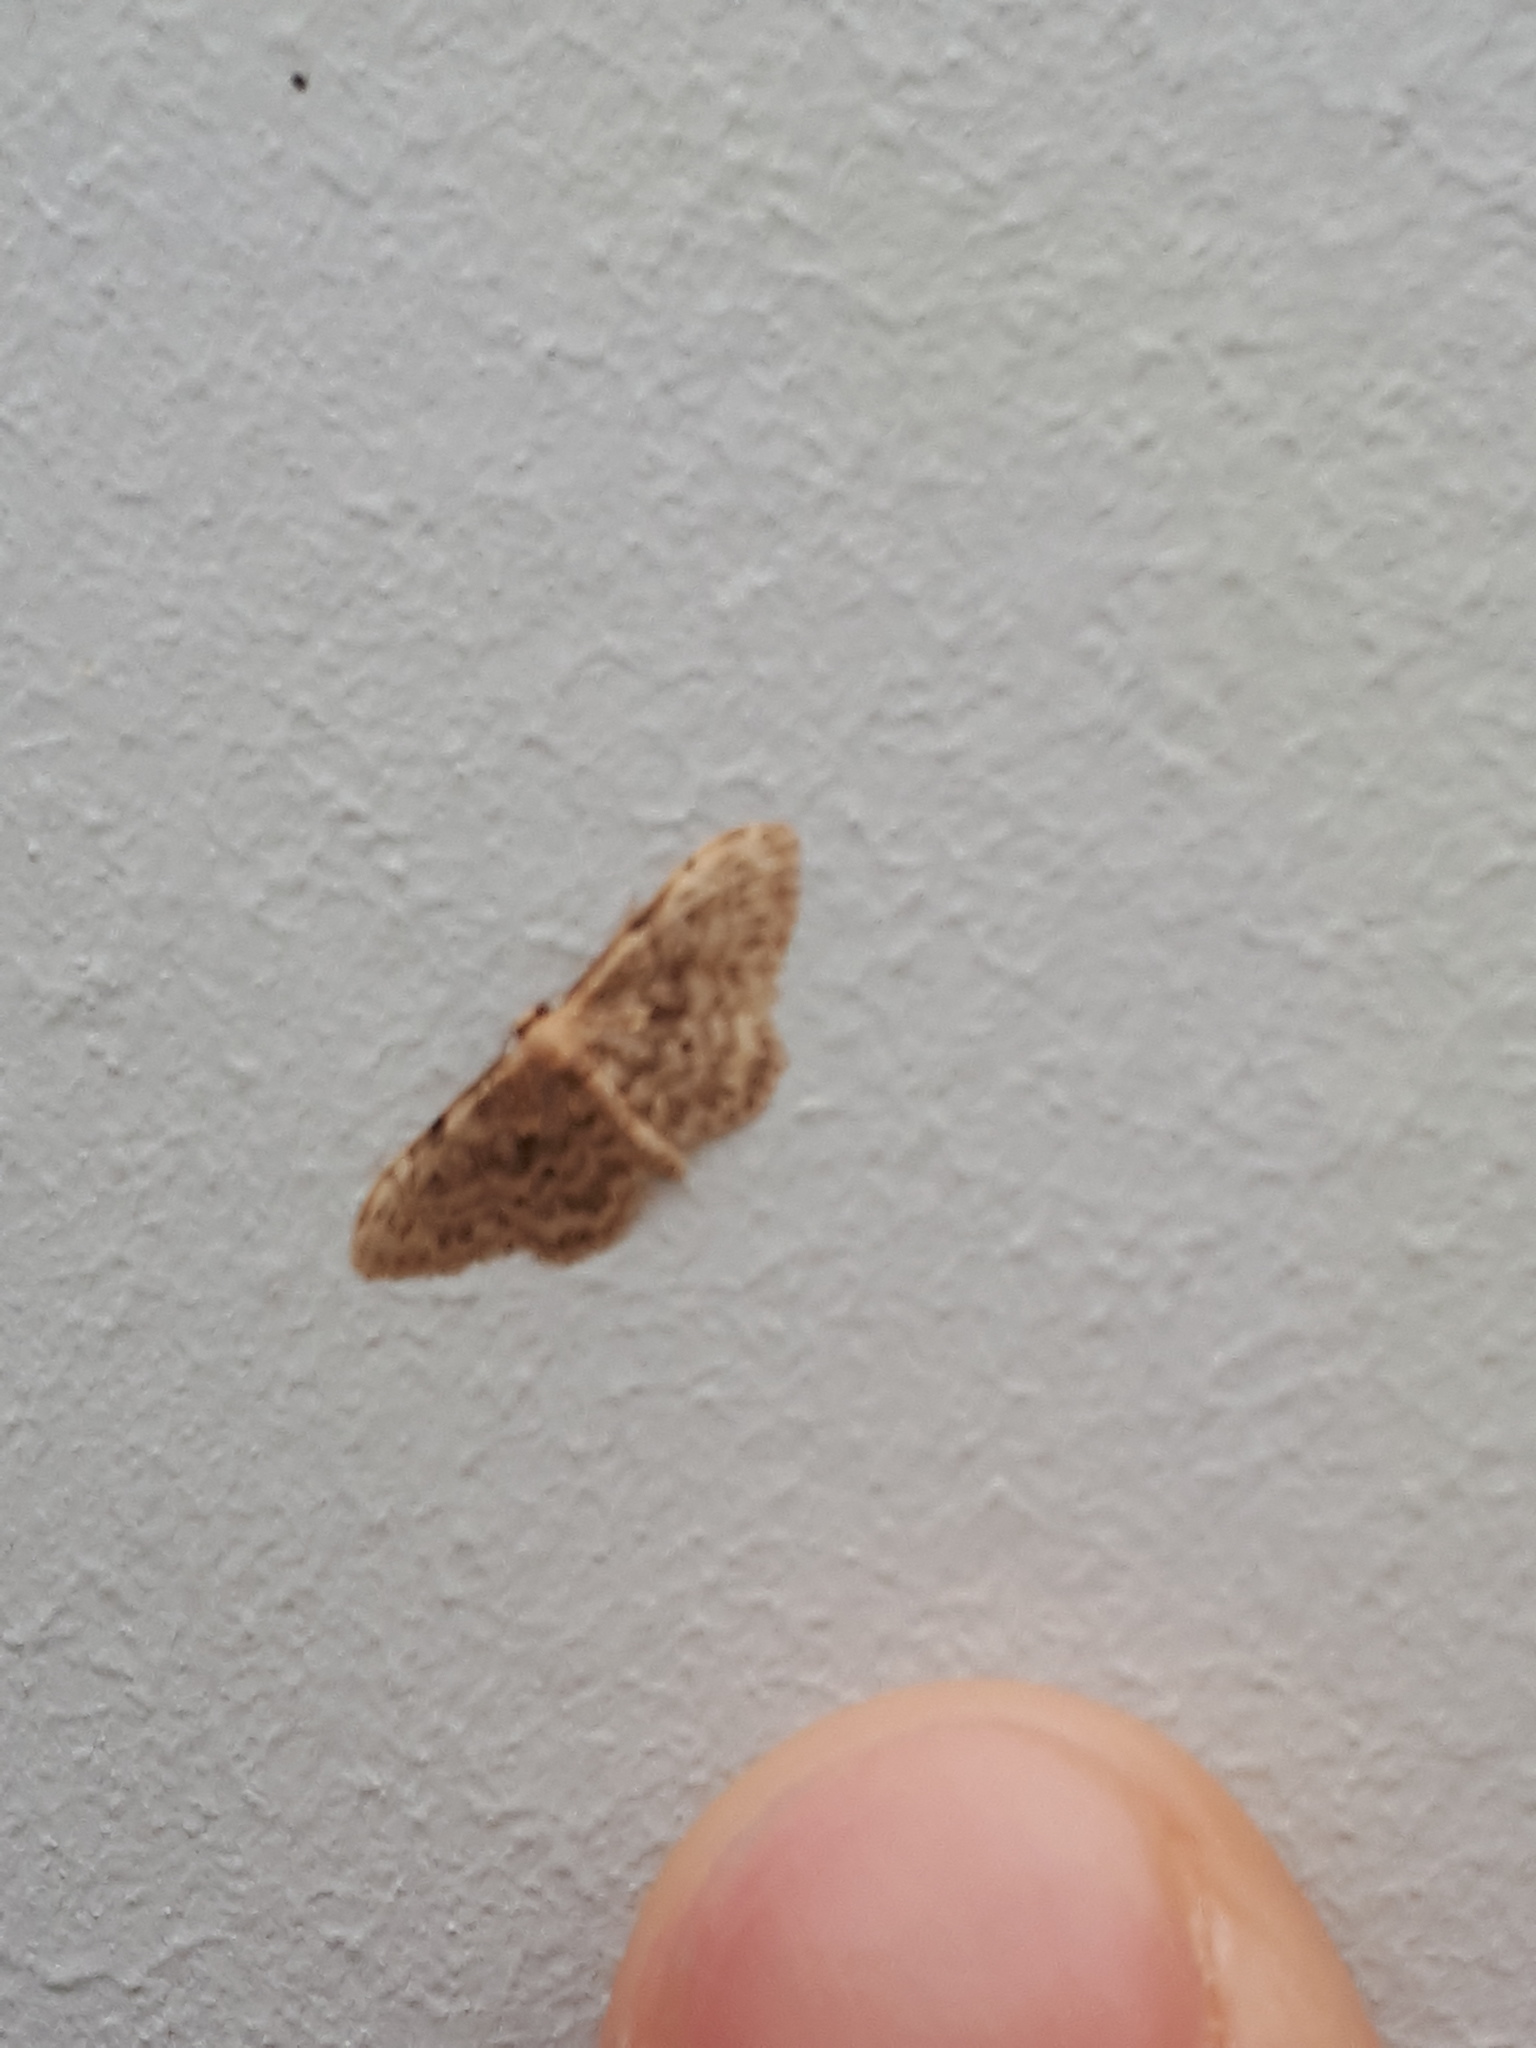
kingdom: Animalia
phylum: Arthropoda
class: Insecta
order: Lepidoptera
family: Geometridae
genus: Idaea
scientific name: Idaea inquinata
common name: Rusty wave
